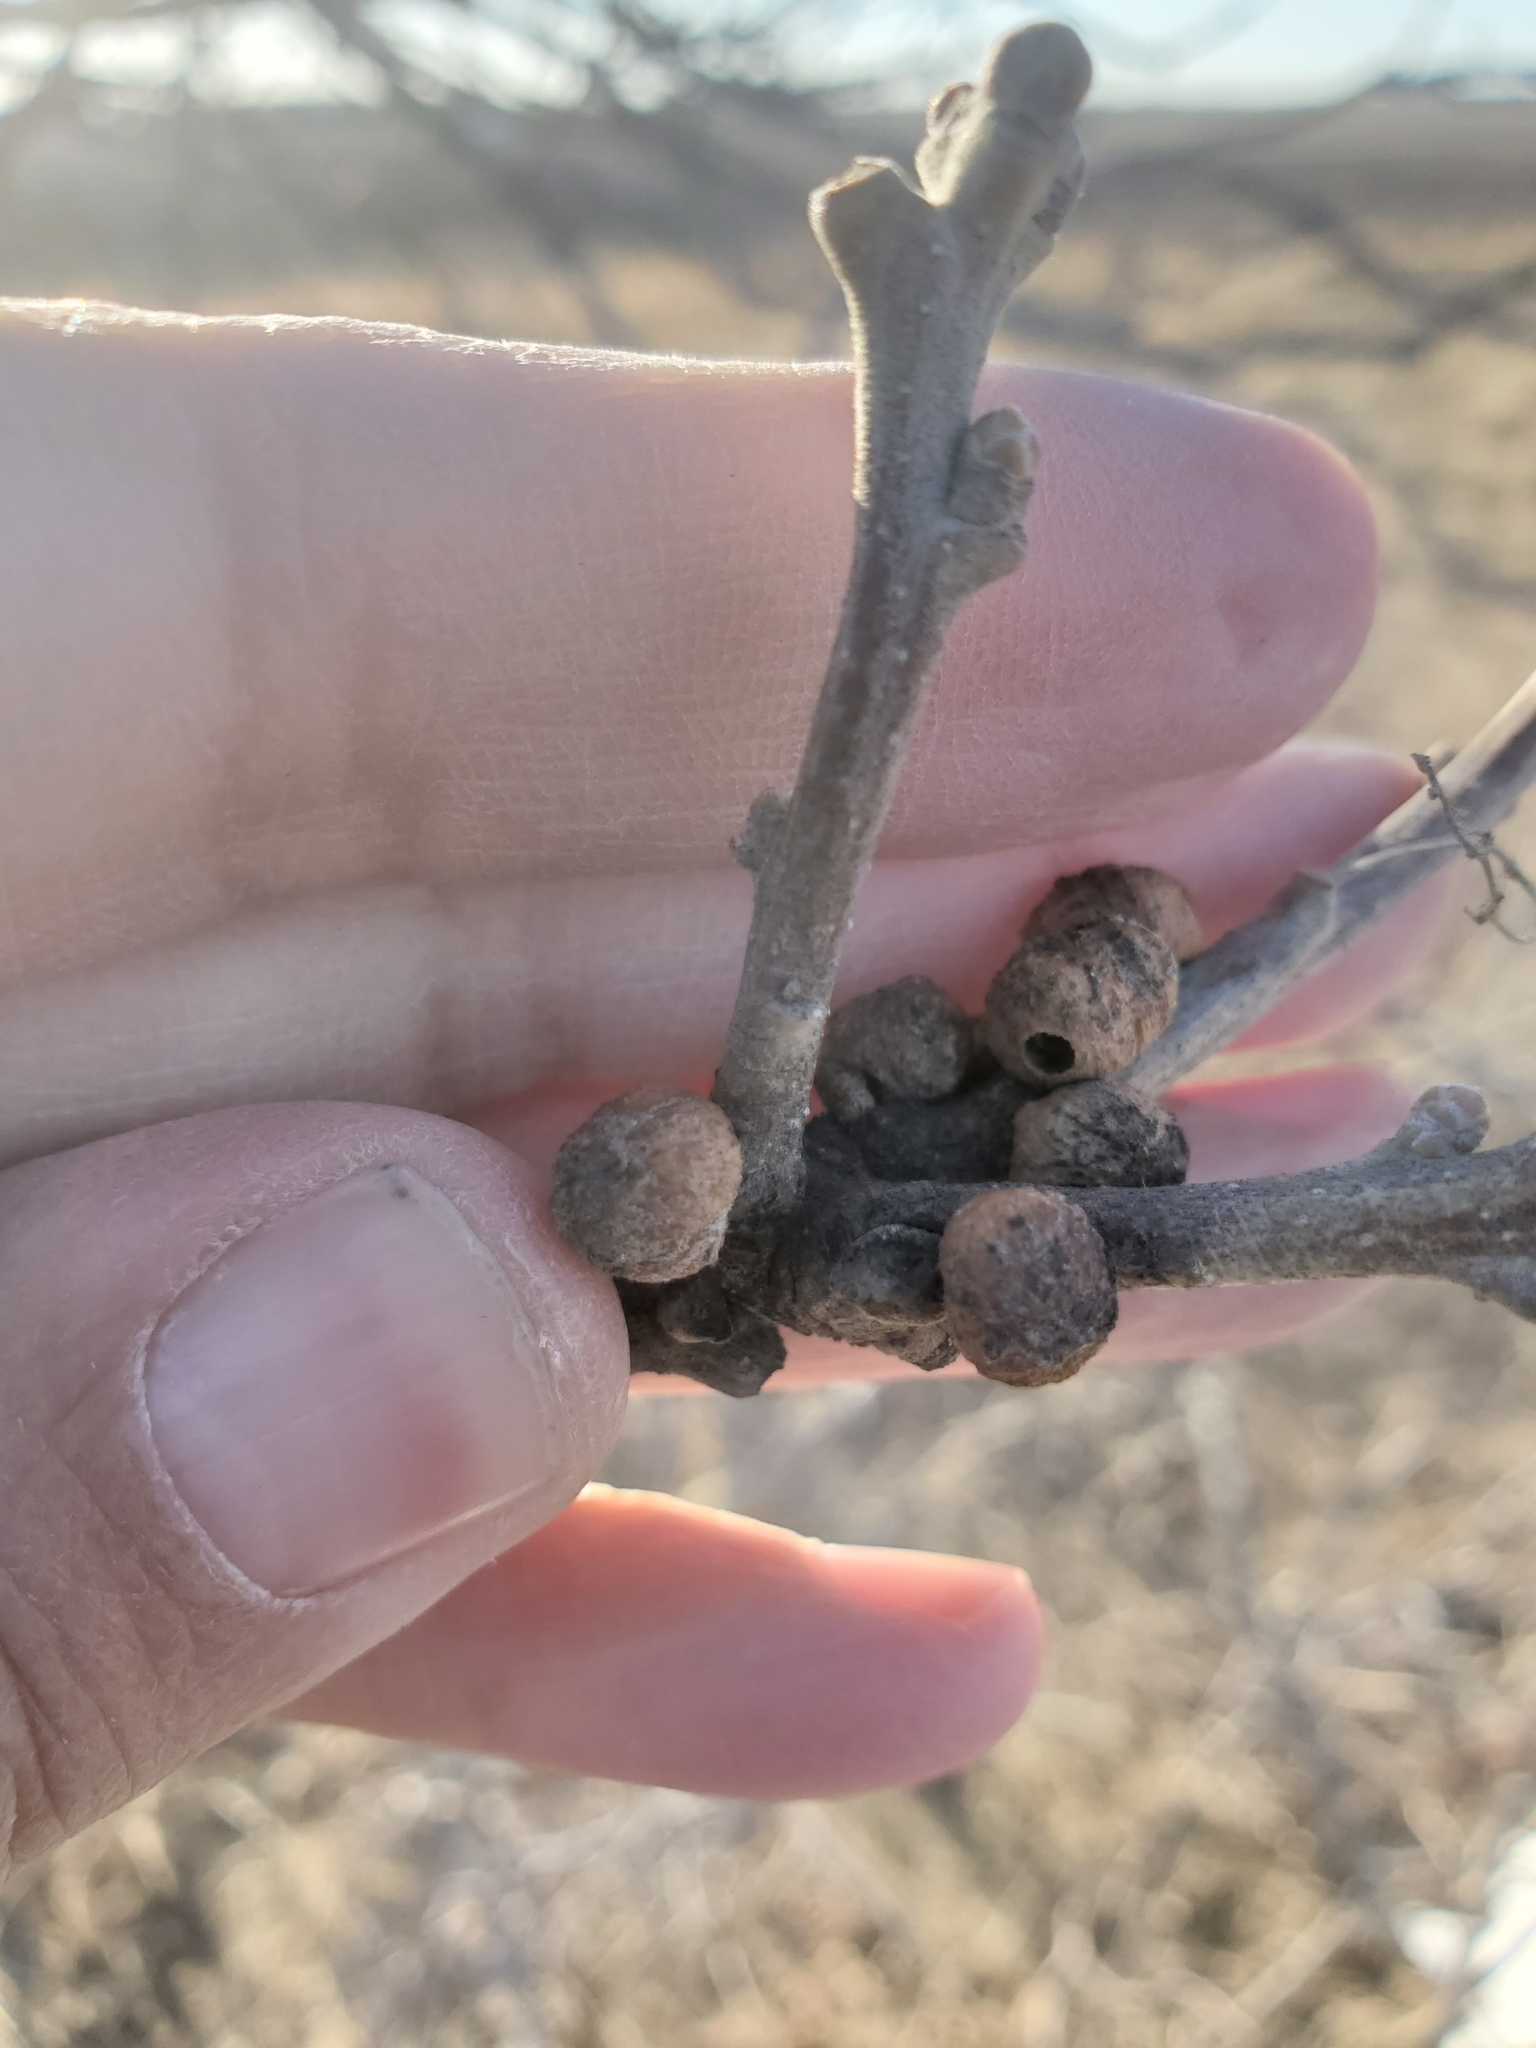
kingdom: Animalia
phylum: Arthropoda
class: Insecta
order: Hymenoptera
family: Cynipidae
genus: Disholcaspis
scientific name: Disholcaspis
